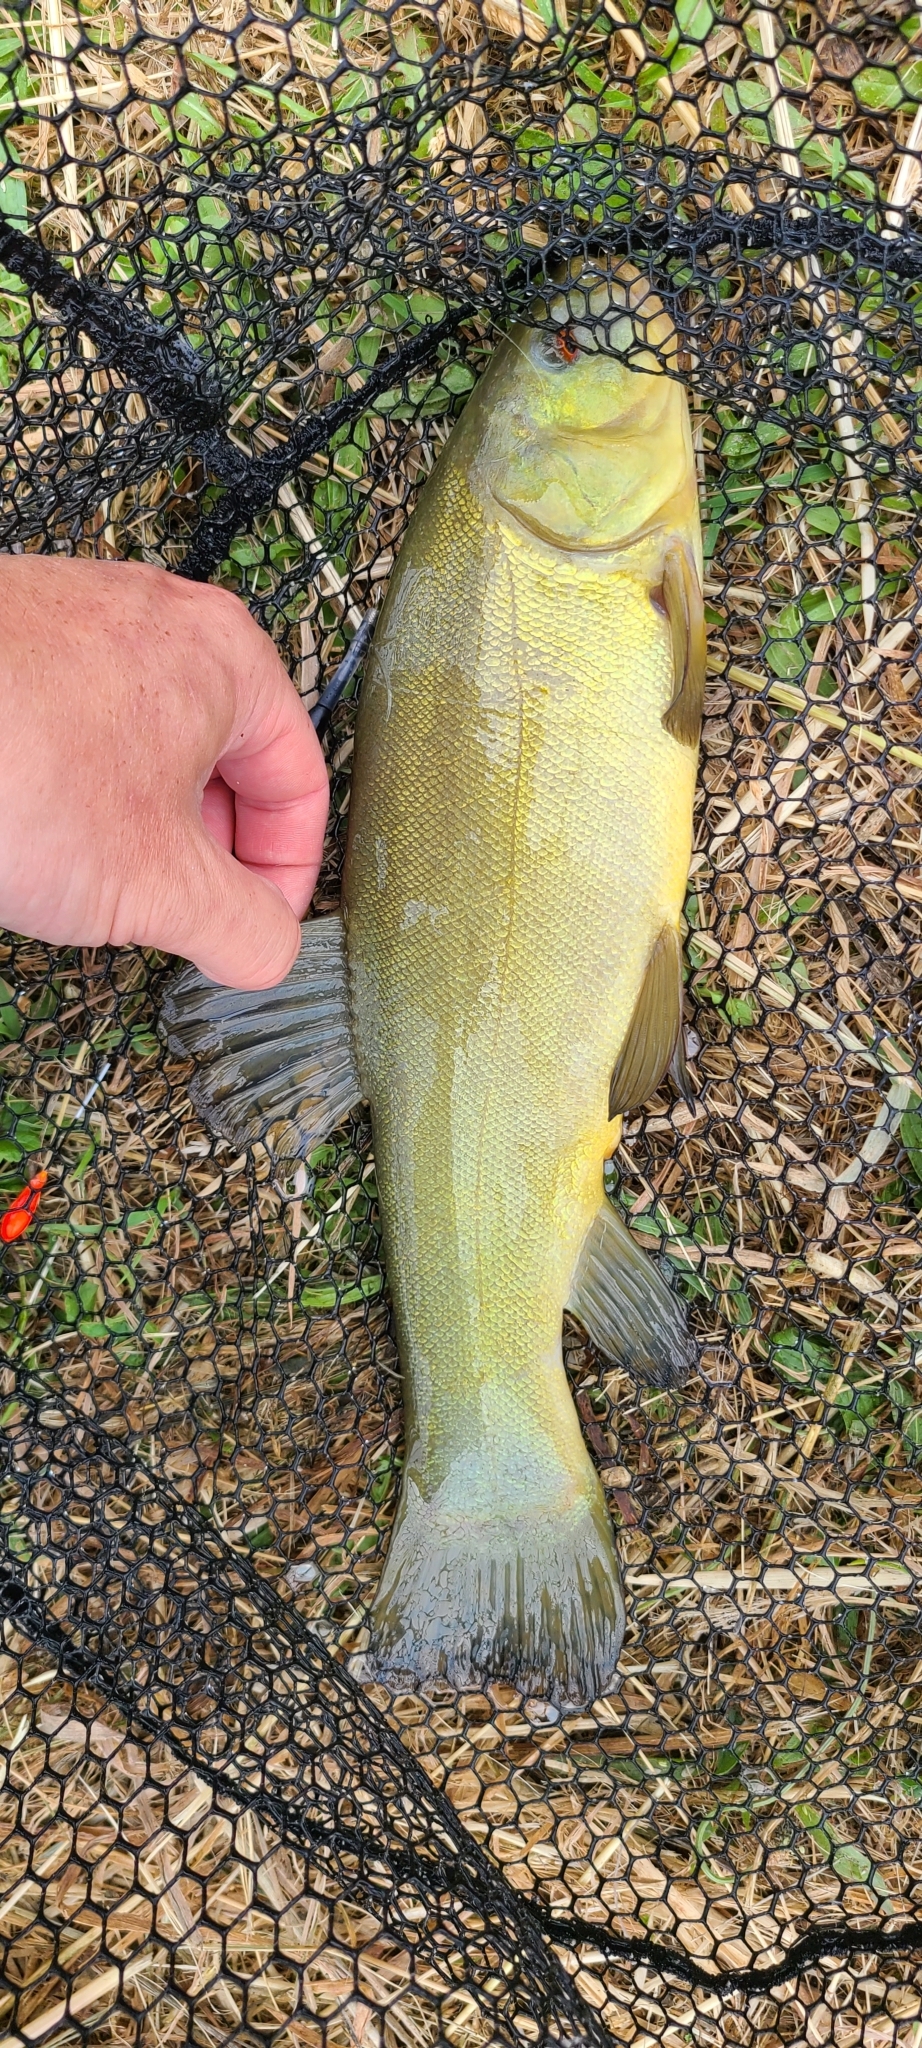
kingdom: Animalia
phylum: Chordata
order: Cypriniformes
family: Cyprinidae
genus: Tinca
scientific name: Tinca tinca
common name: Tench
